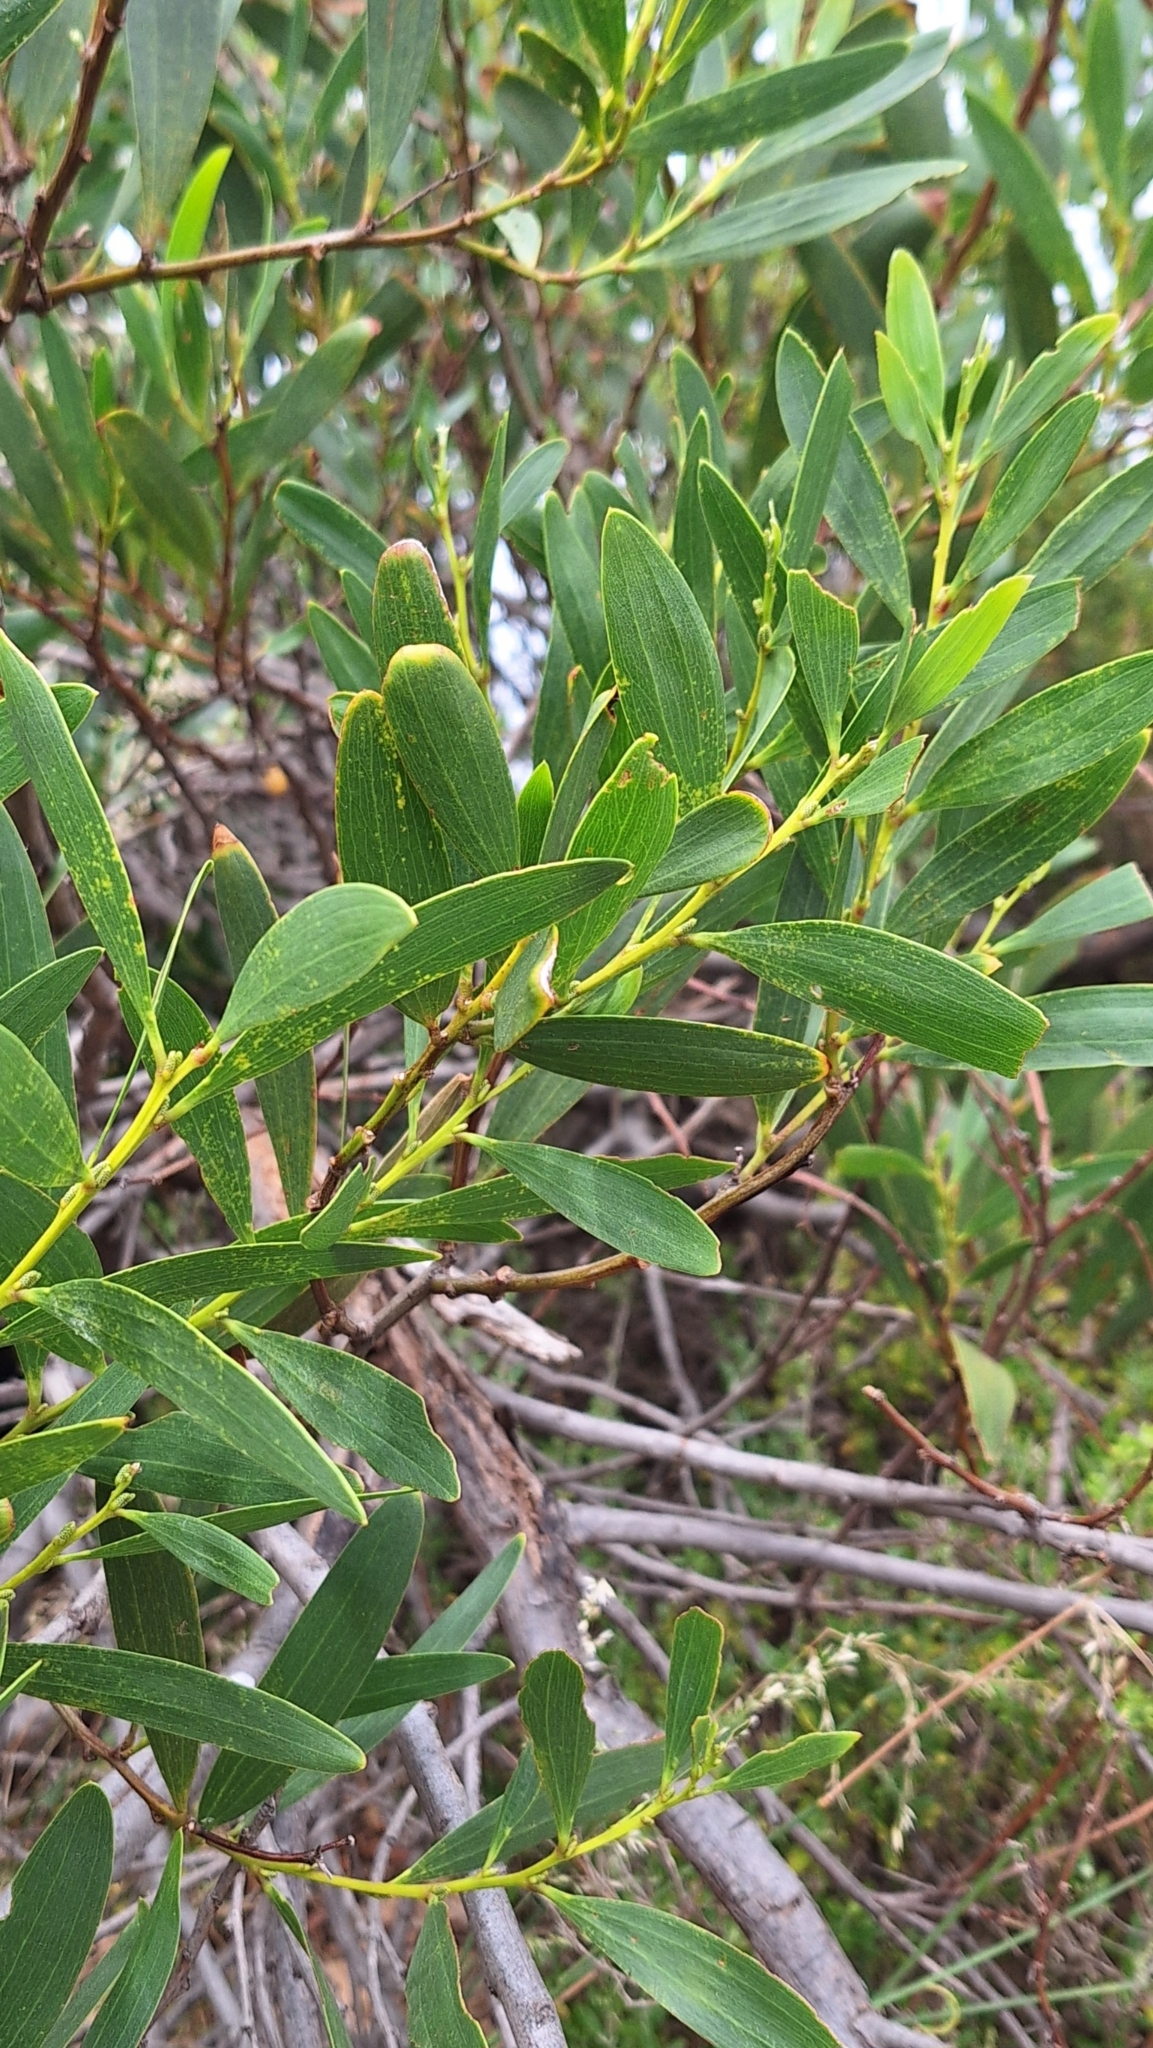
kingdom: Plantae
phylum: Tracheophyta
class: Magnoliopsida
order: Fabales
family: Fabaceae
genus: Acacia
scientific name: Acacia longifolia
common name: Sydney golden wattle
